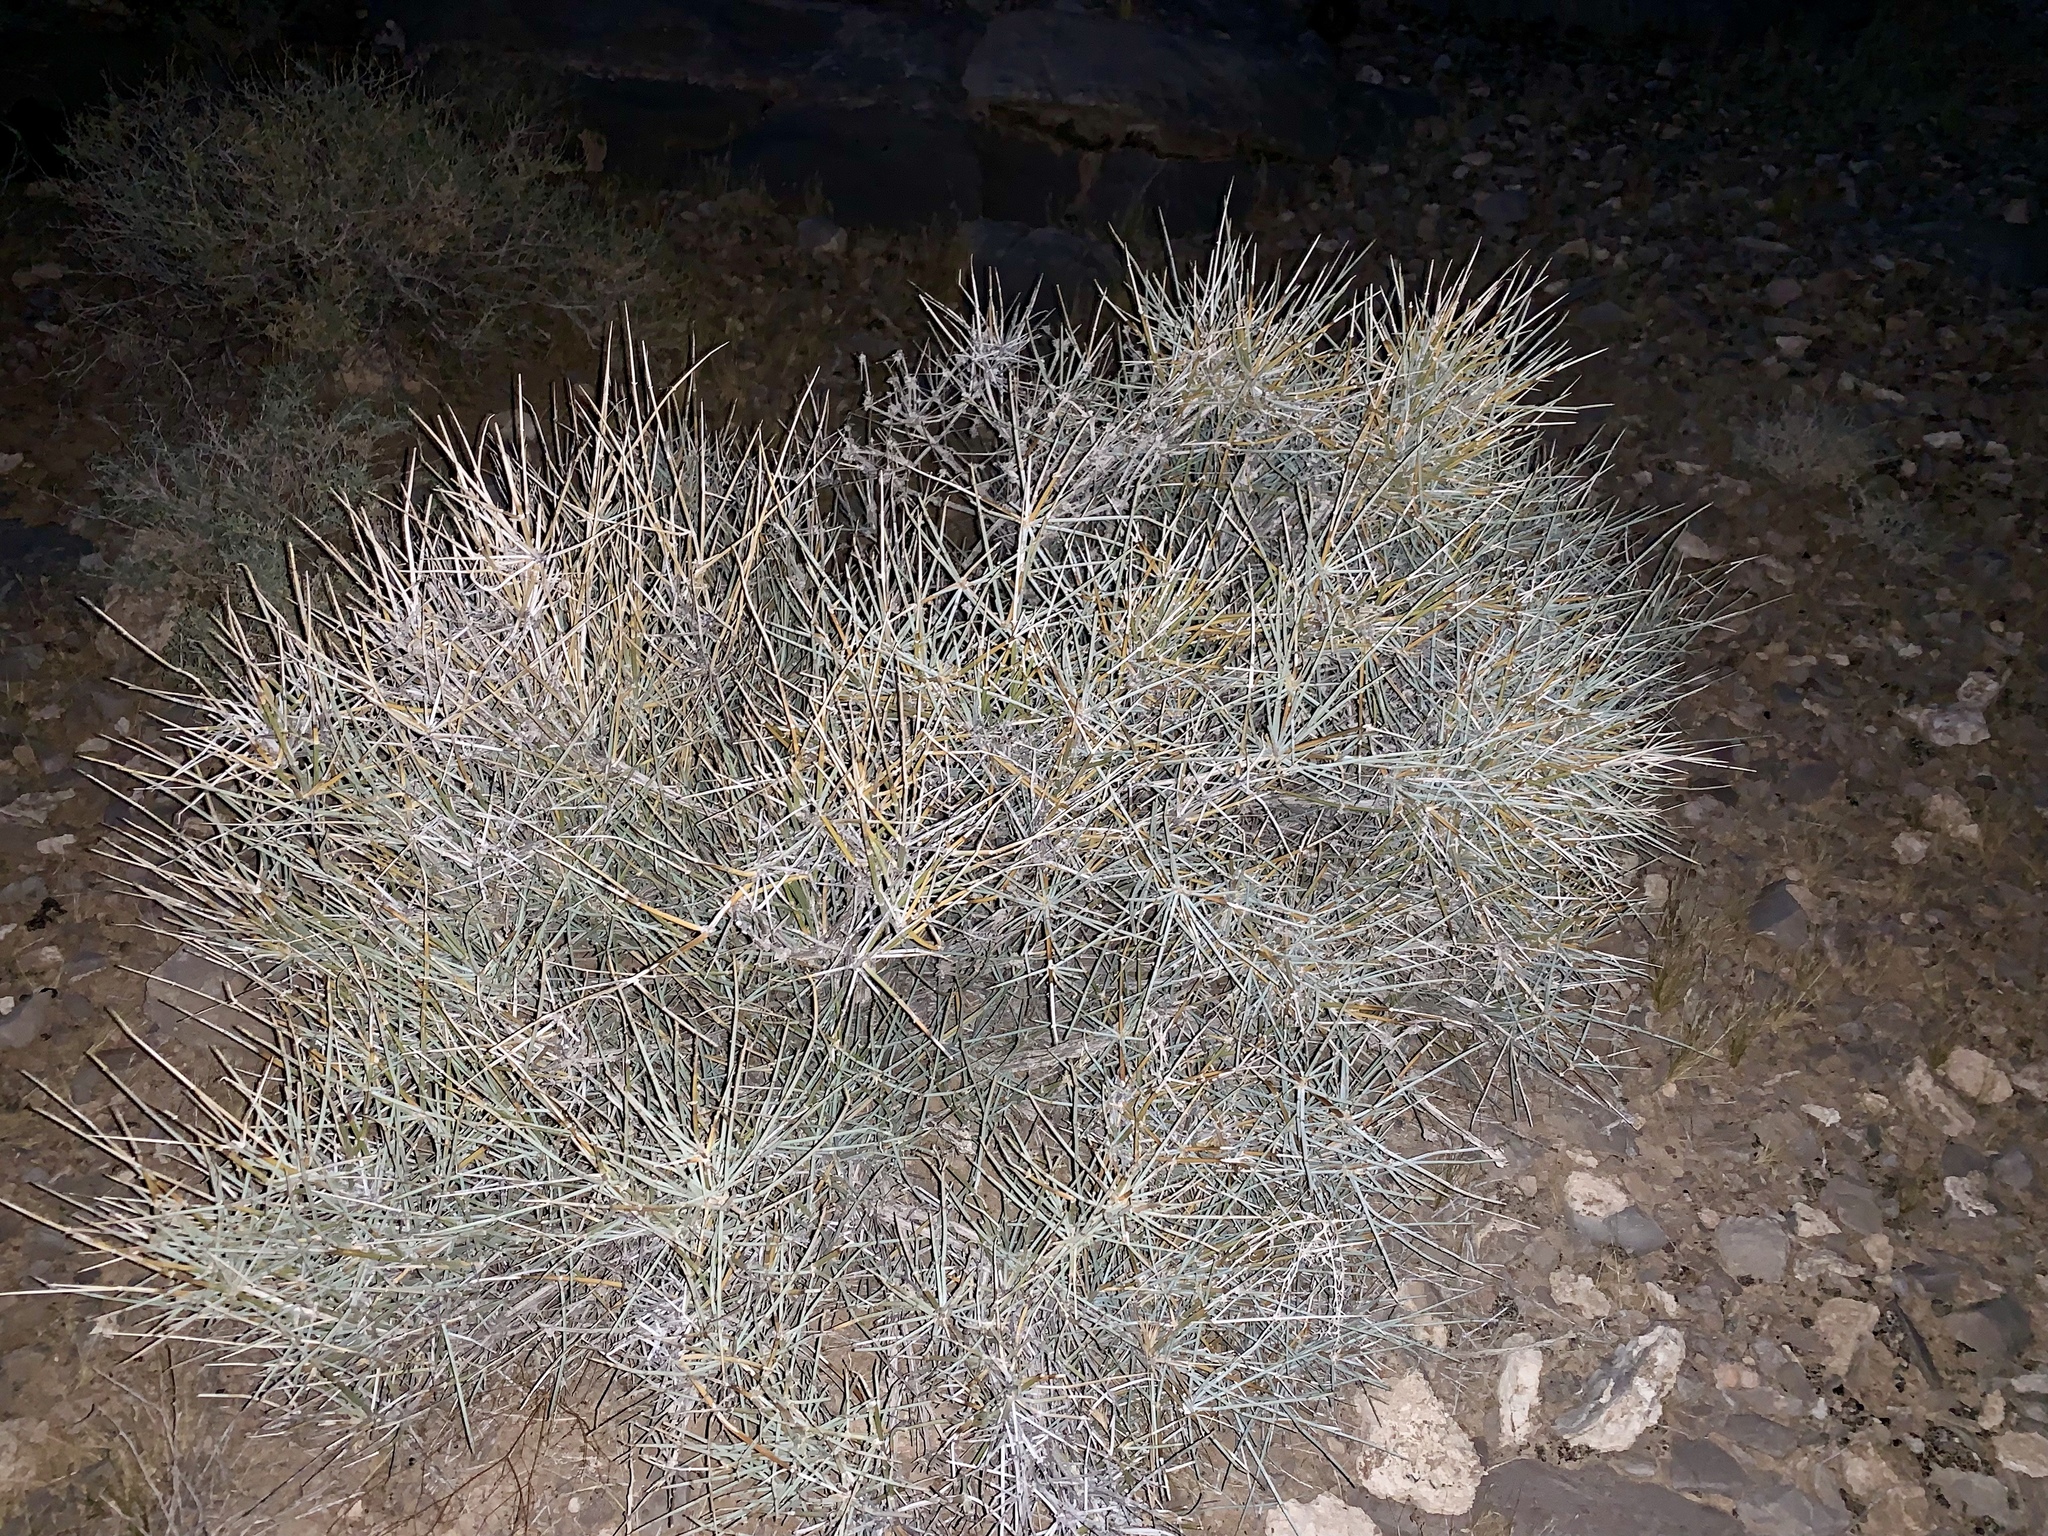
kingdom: Plantae
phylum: Tracheophyta
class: Gnetopsida
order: Ephedrales
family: Ephedraceae
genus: Ephedra
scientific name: Ephedra nevadensis
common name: Gray ephedra
